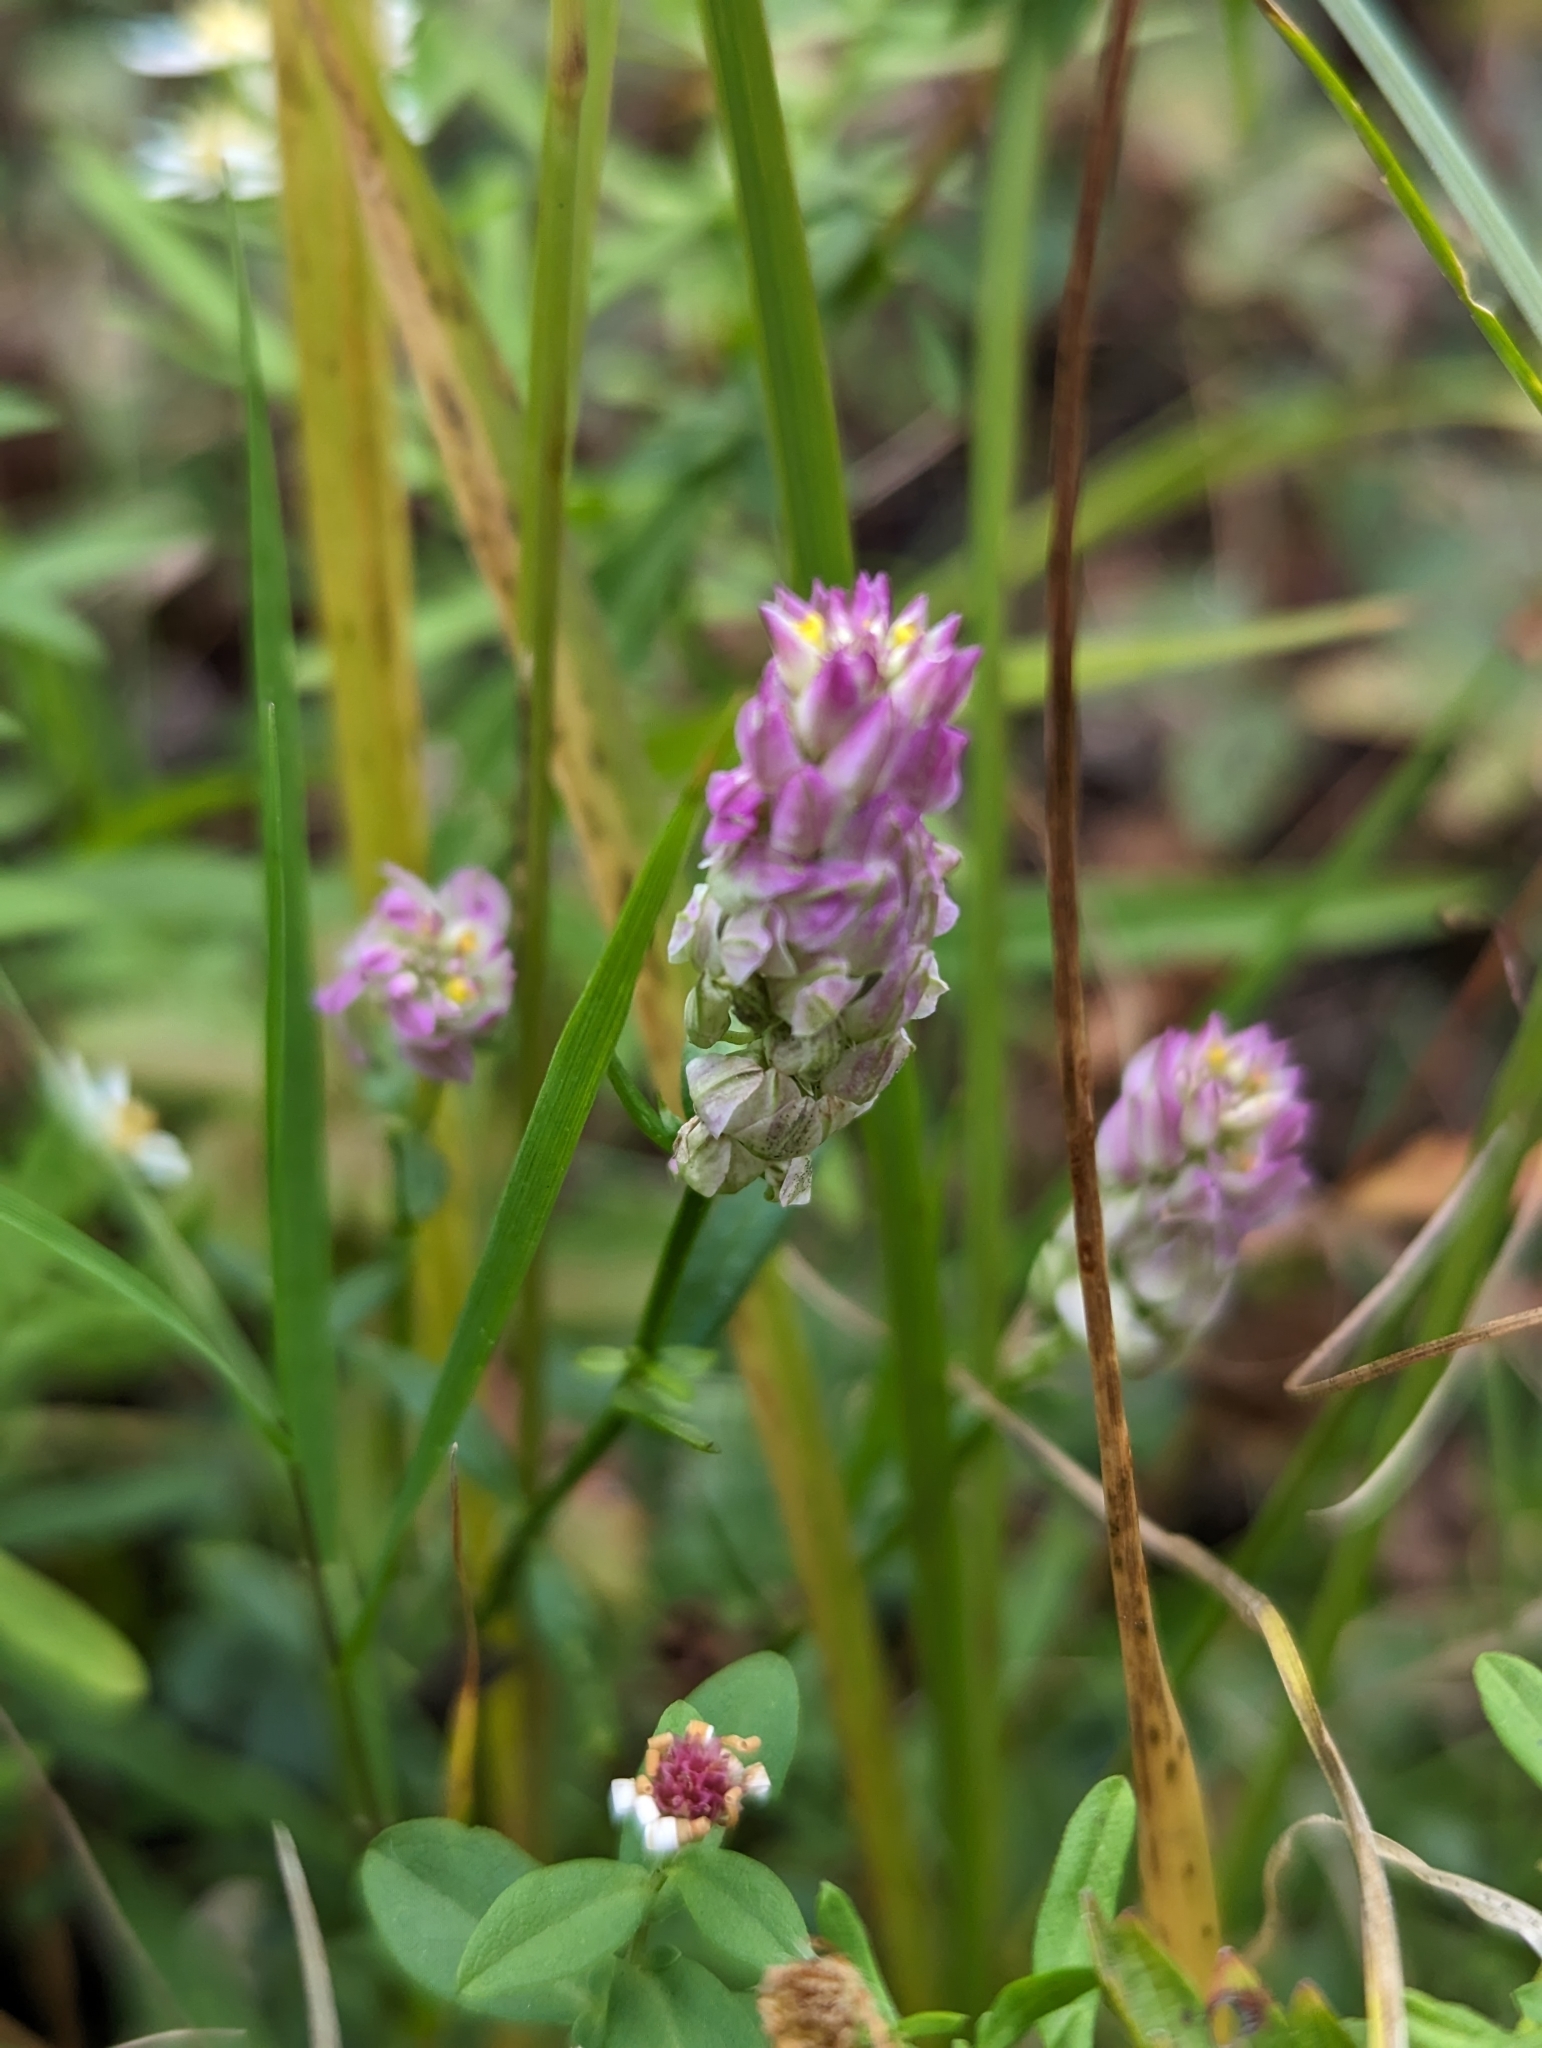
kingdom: Plantae
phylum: Tracheophyta
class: Magnoliopsida
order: Fabales
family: Polygalaceae
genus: Polygala
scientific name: Polygala sanguinea
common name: Blood milkwort
